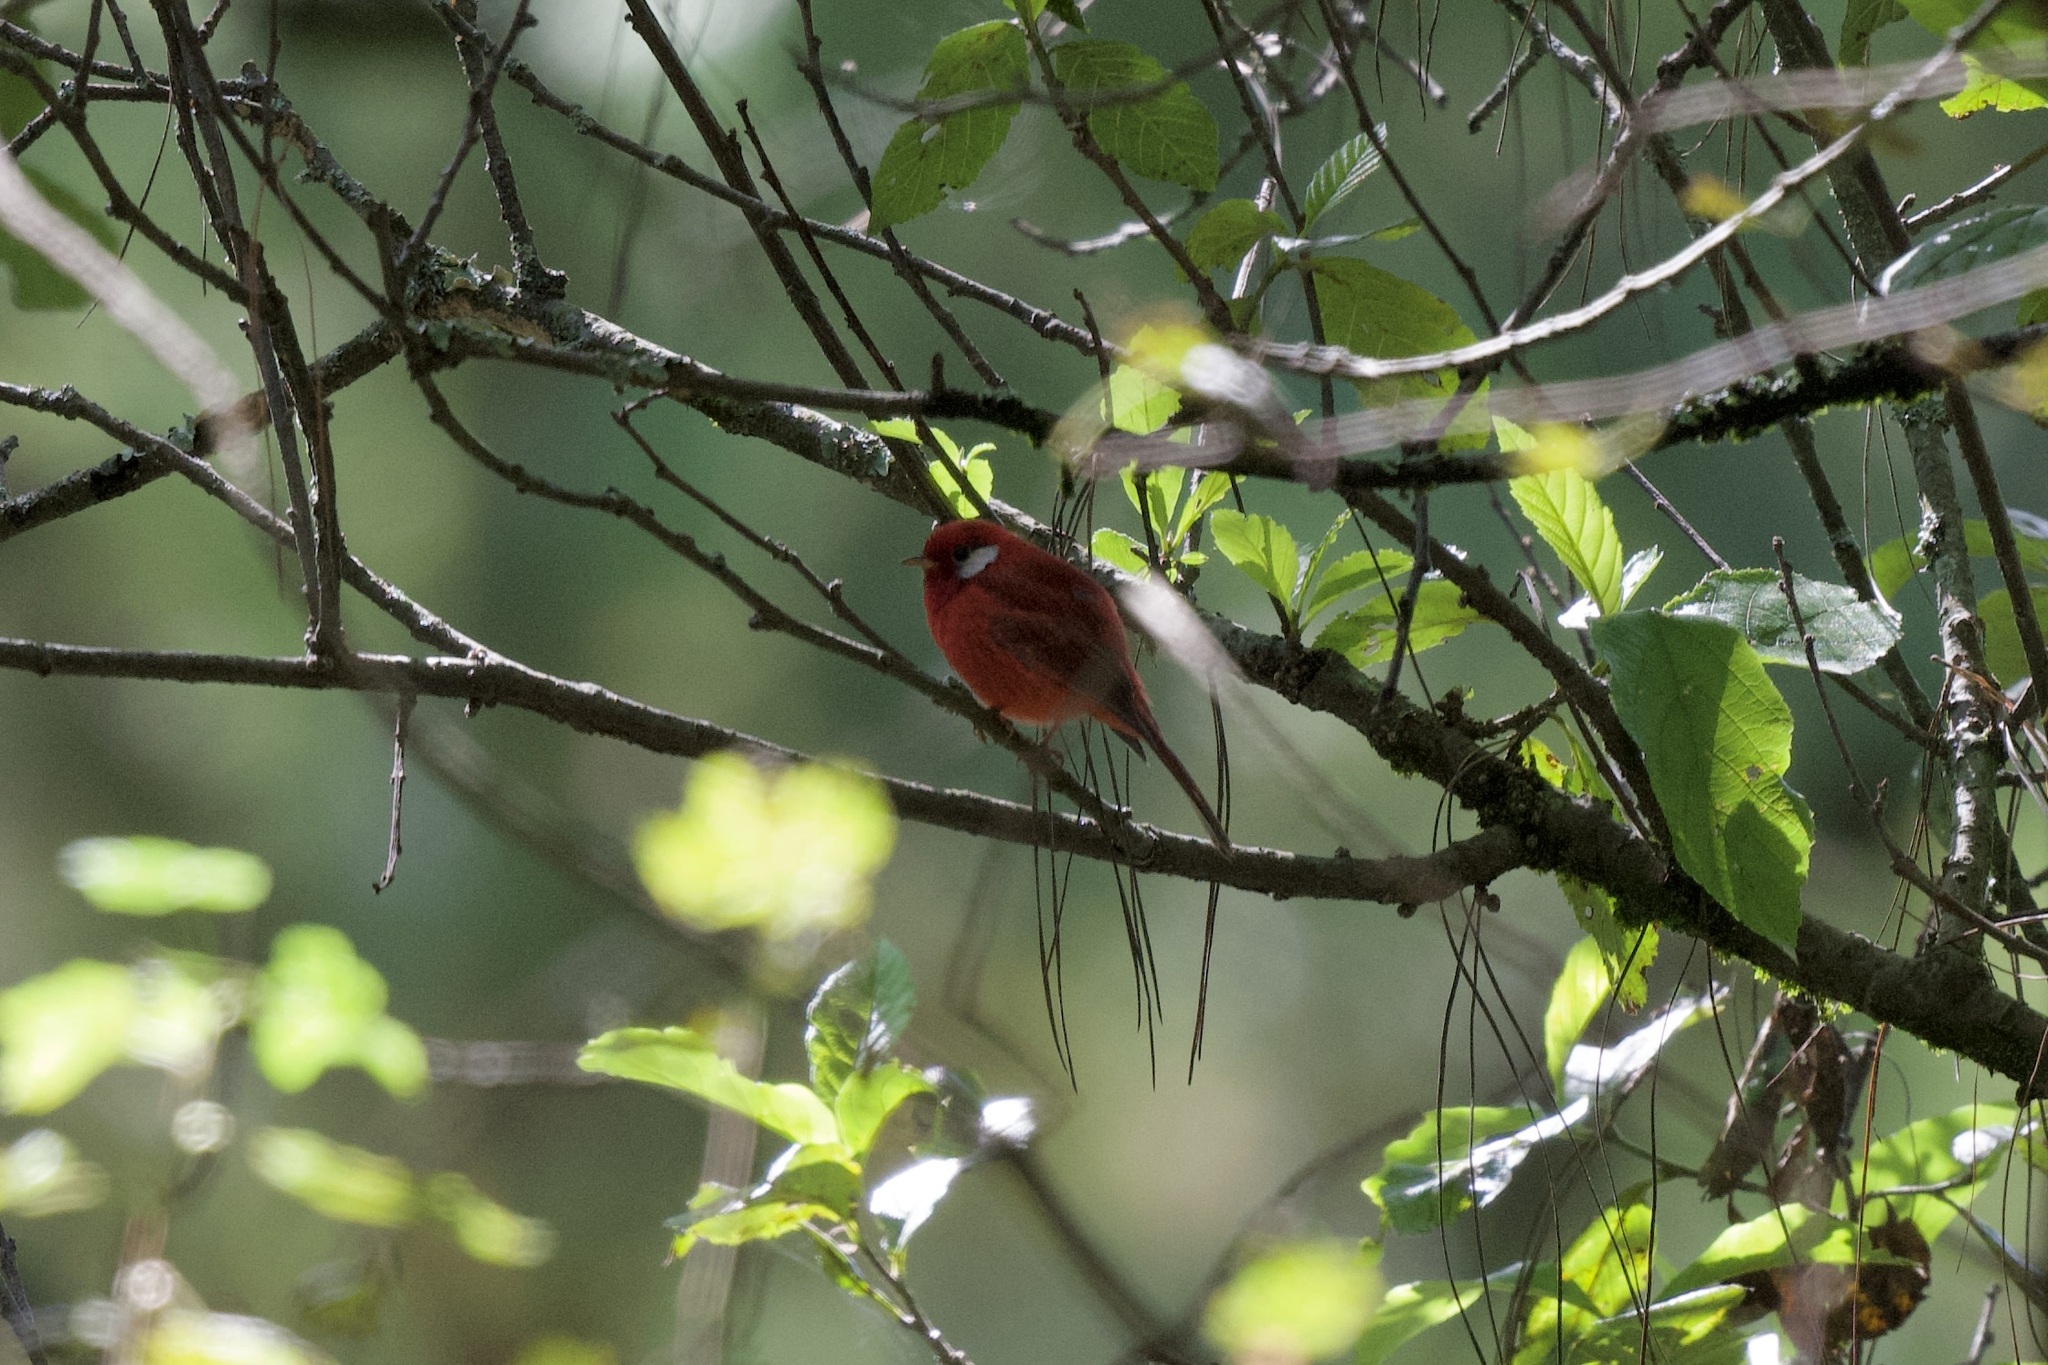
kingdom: Animalia
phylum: Chordata
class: Aves
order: Passeriformes
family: Parulidae
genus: Cardellina
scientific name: Cardellina rubra
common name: Red warbler
